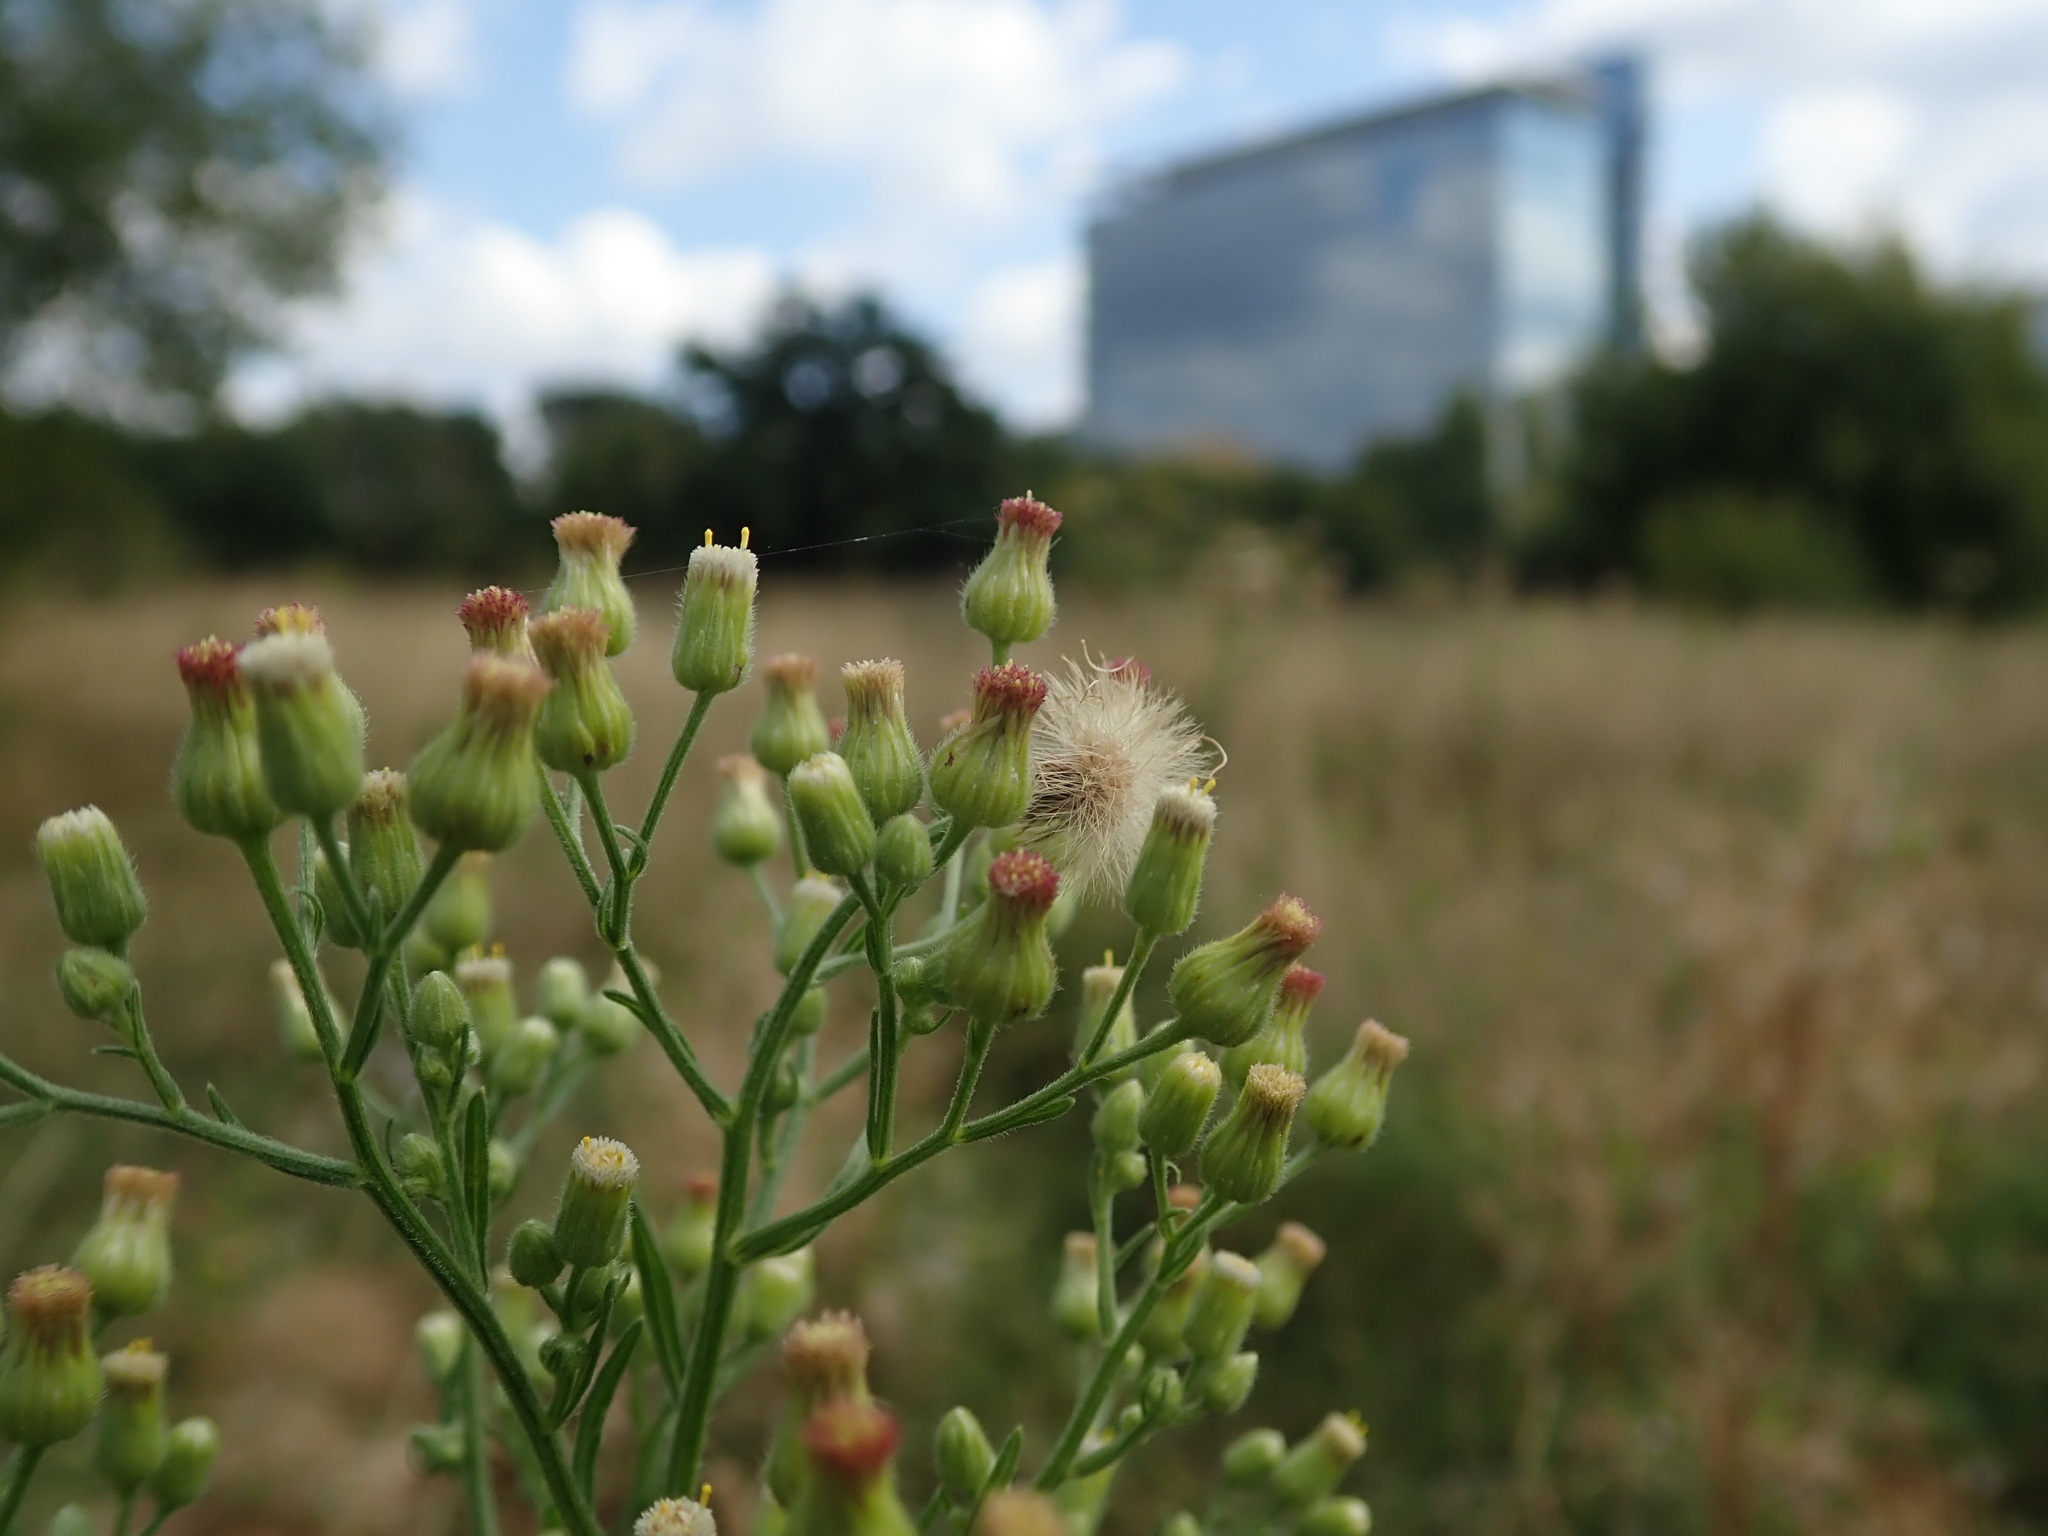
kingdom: Plantae
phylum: Tracheophyta
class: Magnoliopsida
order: Asterales
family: Asteraceae
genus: Erigeron
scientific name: Erigeron sumatrensis
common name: Daisy
